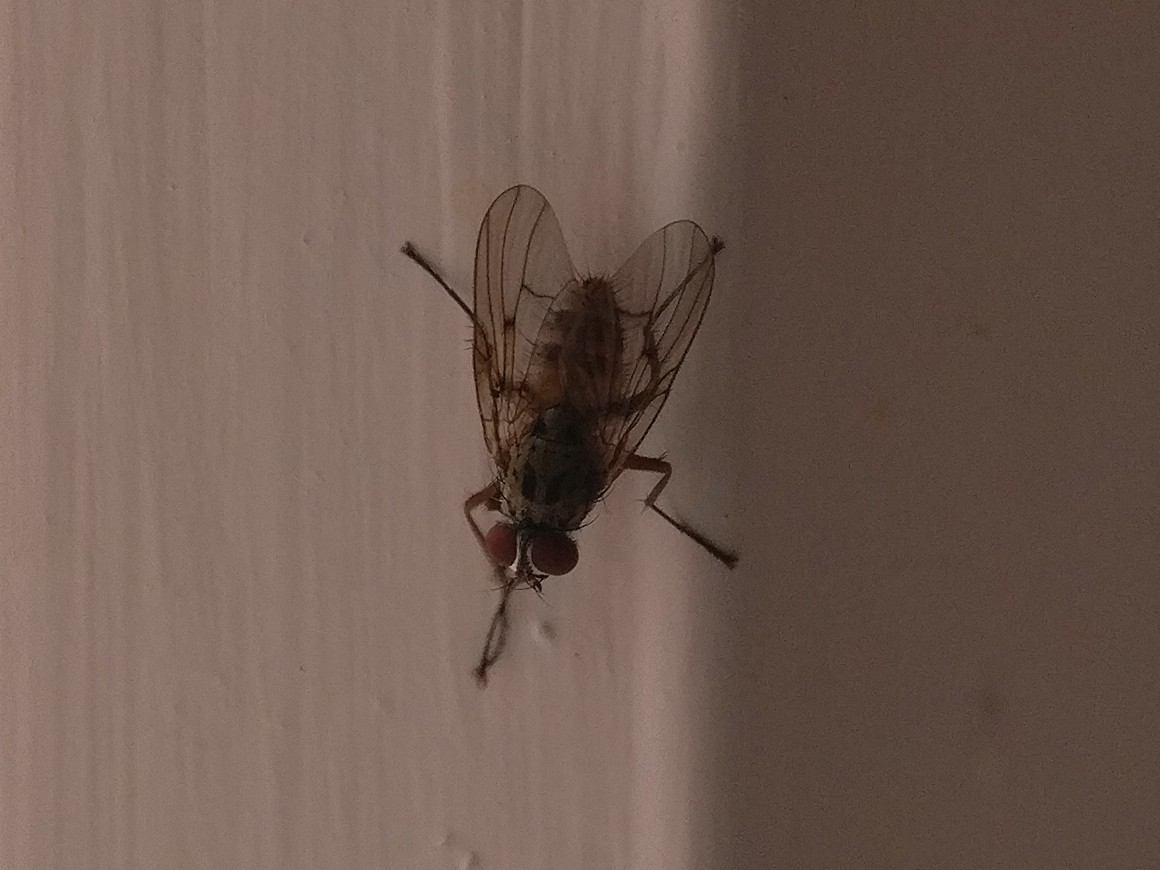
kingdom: Animalia
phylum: Arthropoda
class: Insecta
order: Diptera
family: Muscidae
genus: Helina
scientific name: Helina sexmaculata
